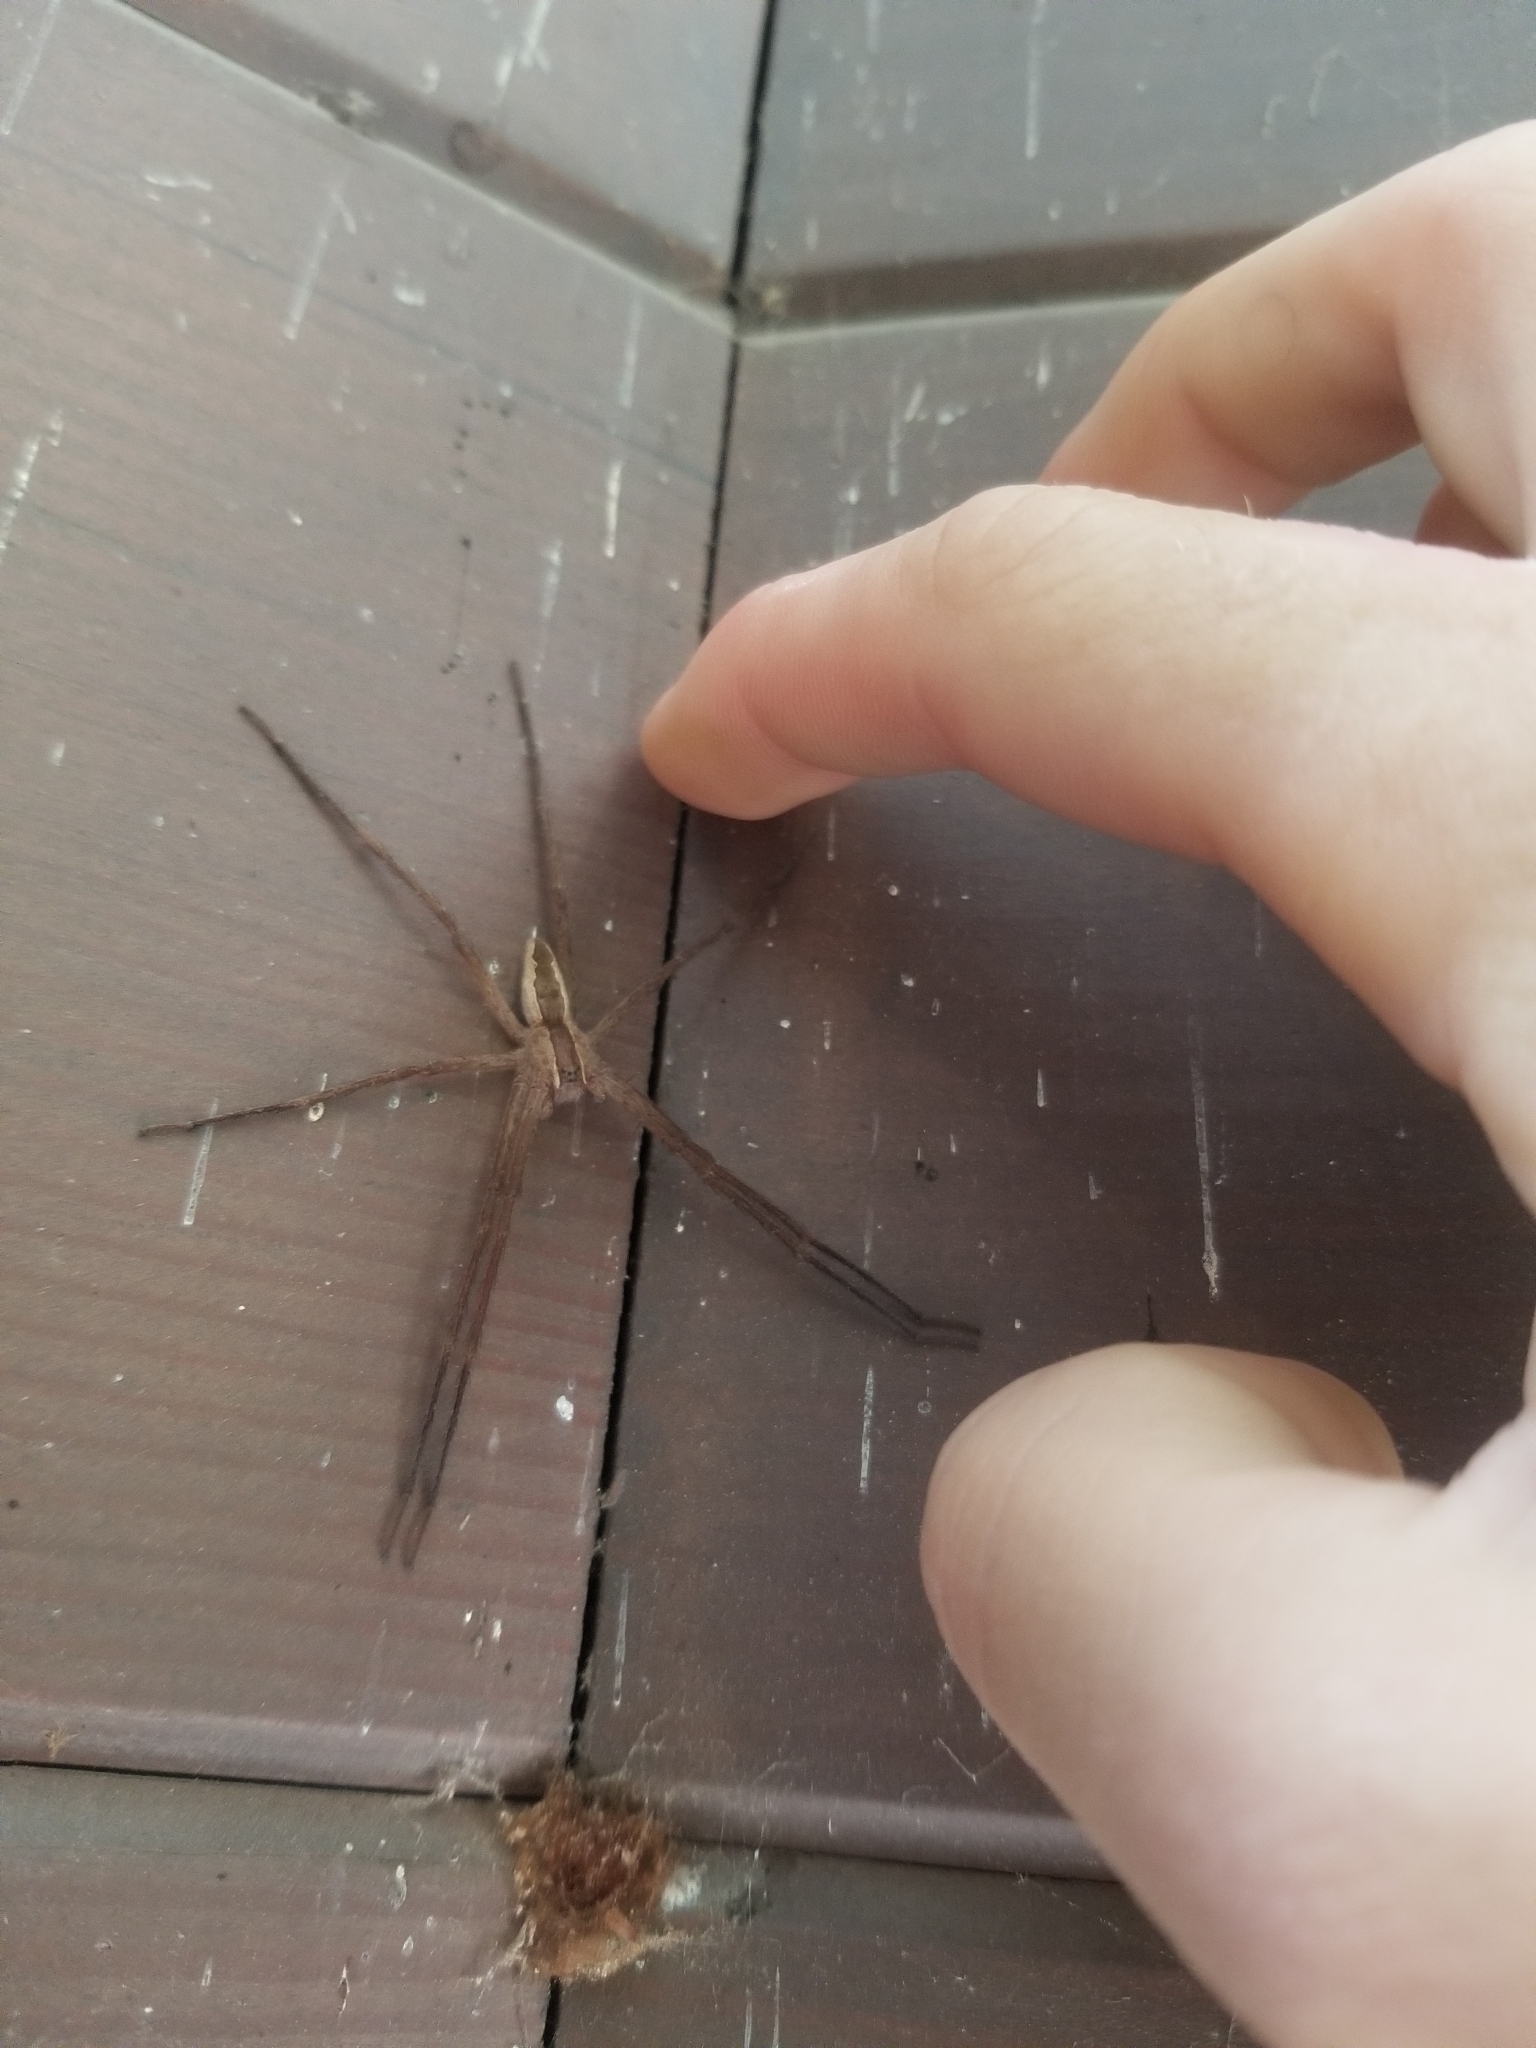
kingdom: Animalia
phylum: Arthropoda
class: Arachnida
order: Araneae
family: Pisauridae
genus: Pisaurina
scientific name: Pisaurina mira
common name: American nursery web spider
